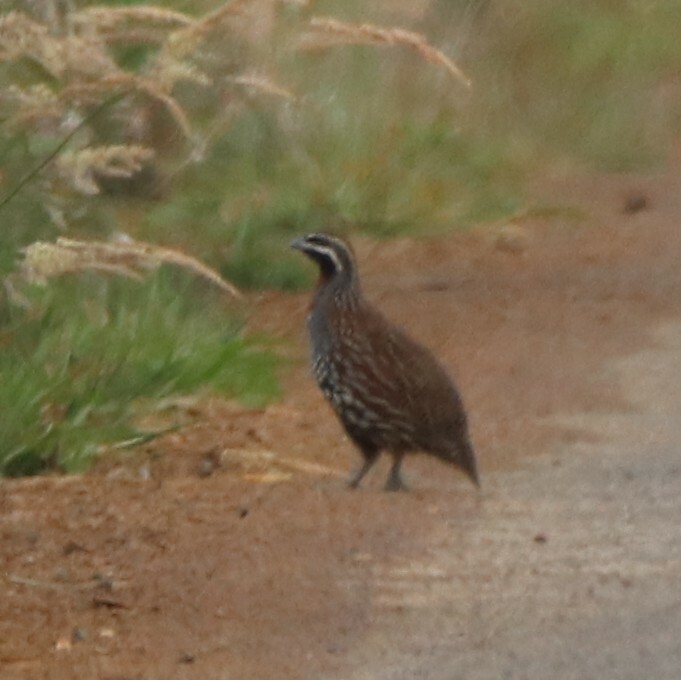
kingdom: Animalia
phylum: Chordata
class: Aves
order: Galliformes
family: Phasianidae
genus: Margaroperdix
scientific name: Margaroperdix madagarensis
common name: Madagascar partridge
